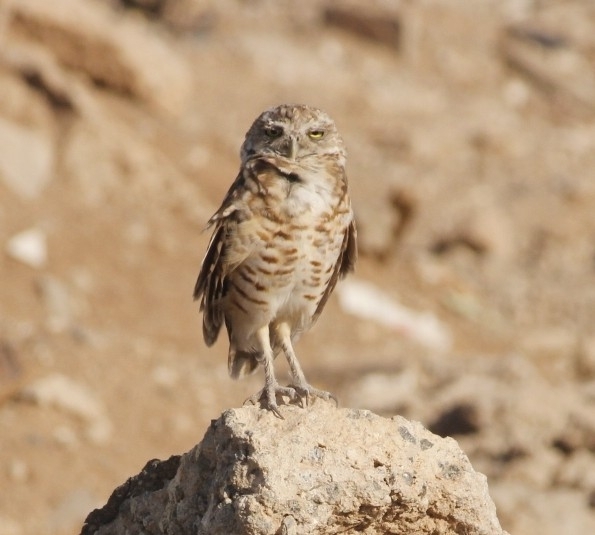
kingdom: Animalia
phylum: Chordata
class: Aves
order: Strigiformes
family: Strigidae
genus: Athene
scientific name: Athene cunicularia
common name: Burrowing owl
